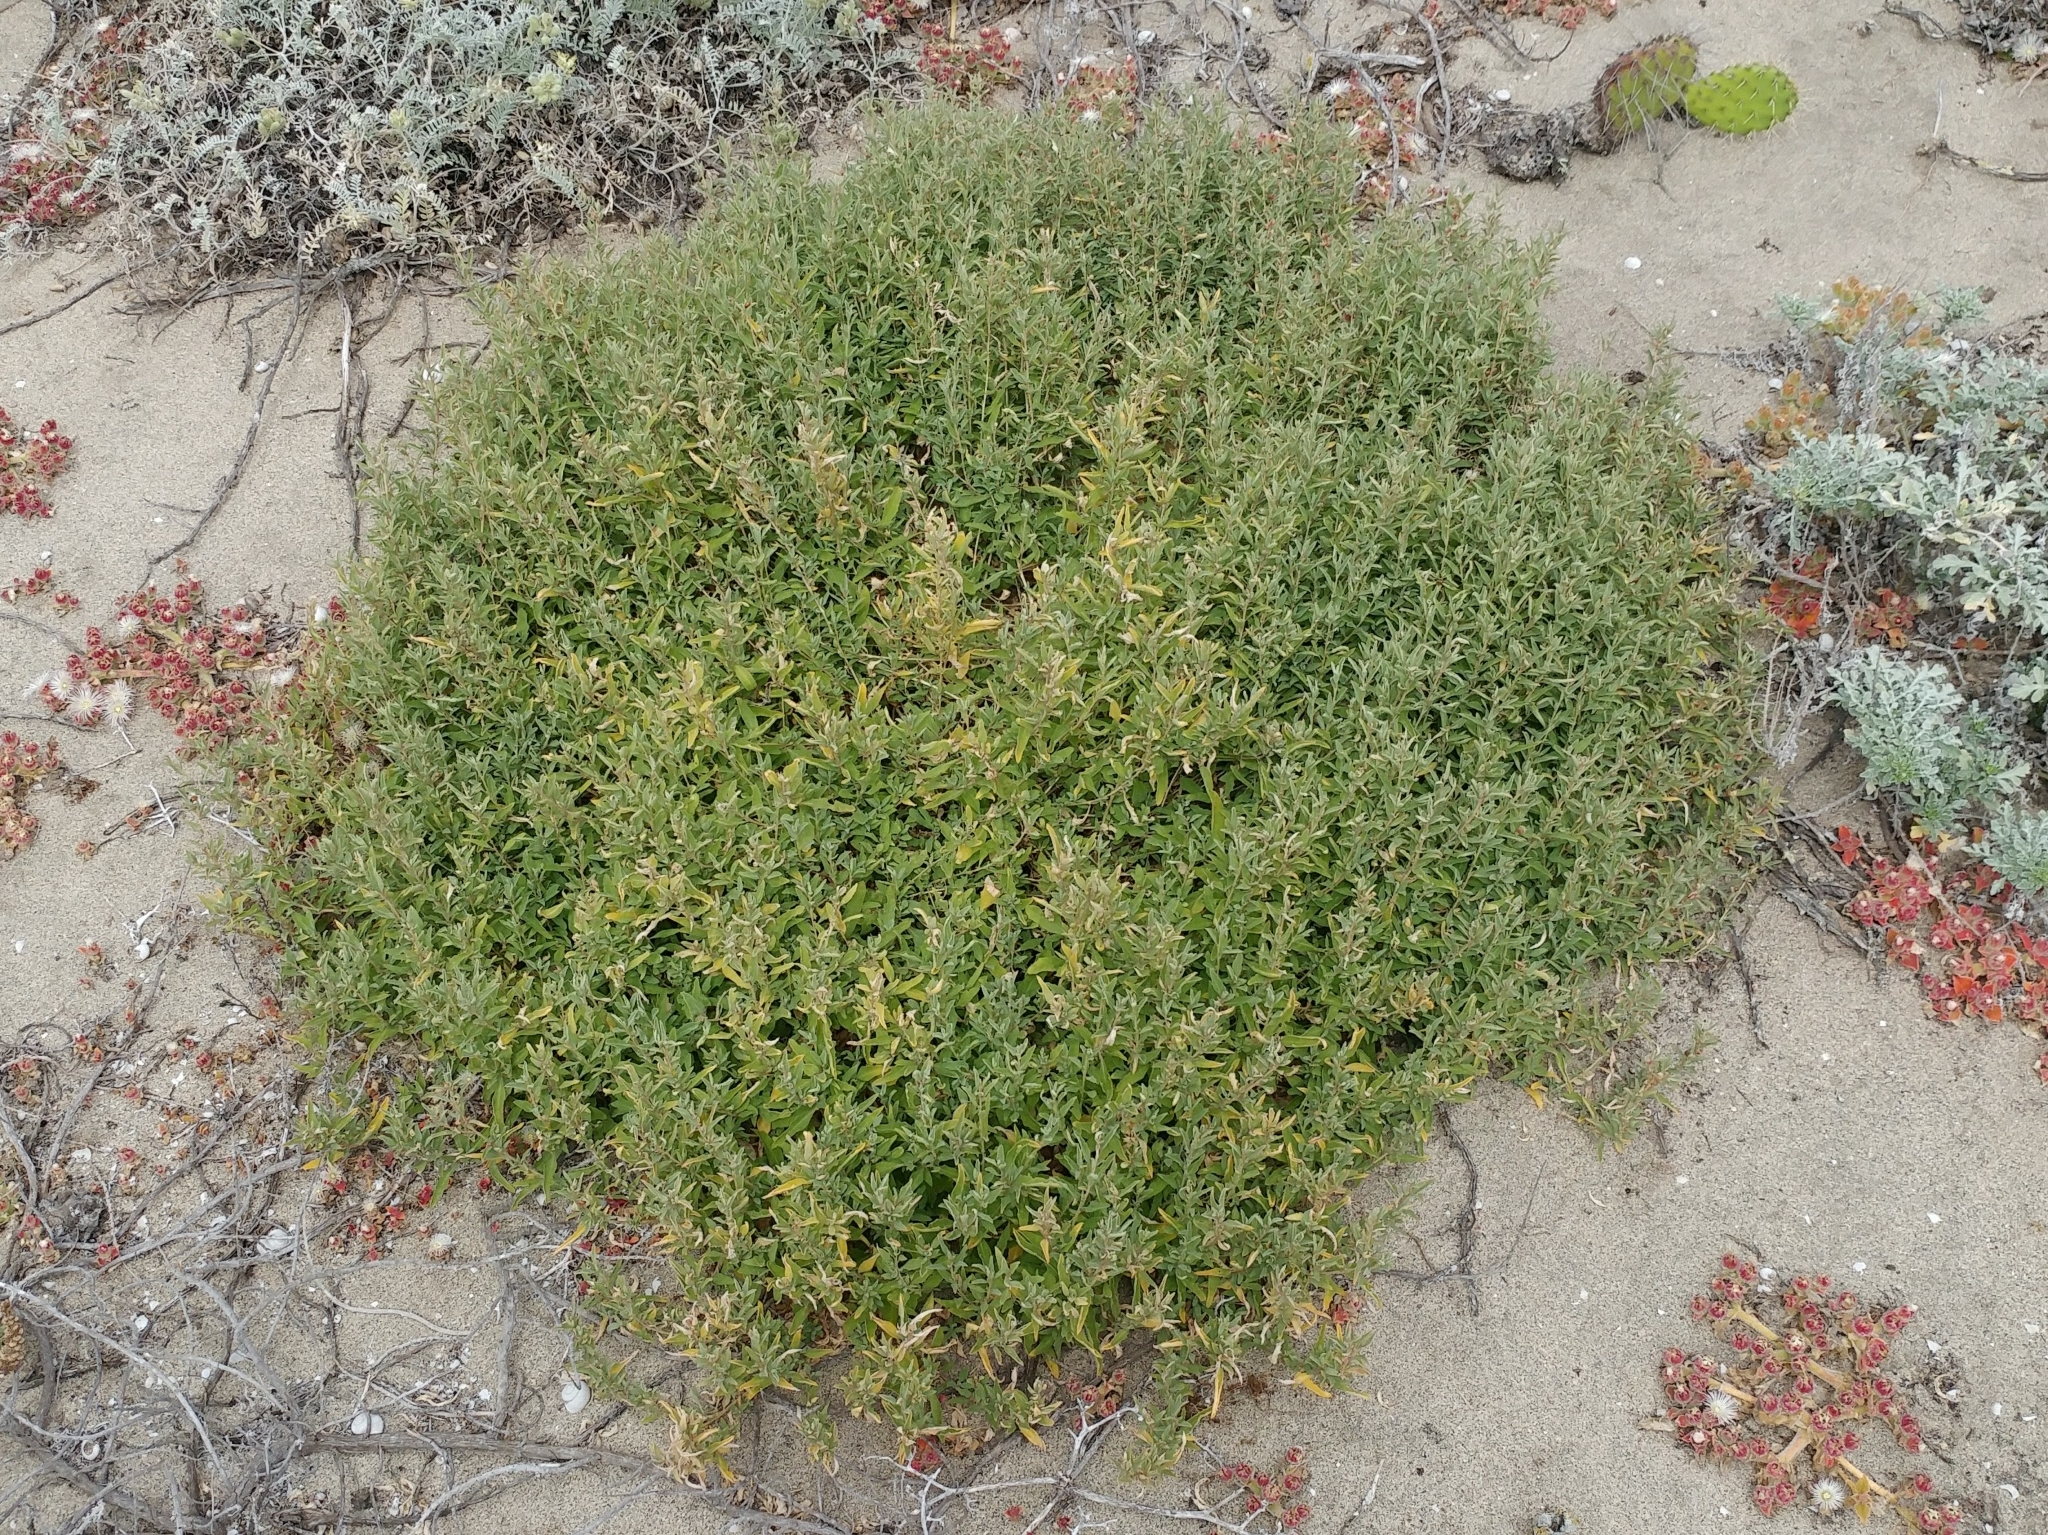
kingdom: Plantae
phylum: Tracheophyta
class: Magnoliopsida
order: Caryophyllales
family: Amaranthaceae
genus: Atriplex
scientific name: Atriplex semibaccata
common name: Australian saltbush
